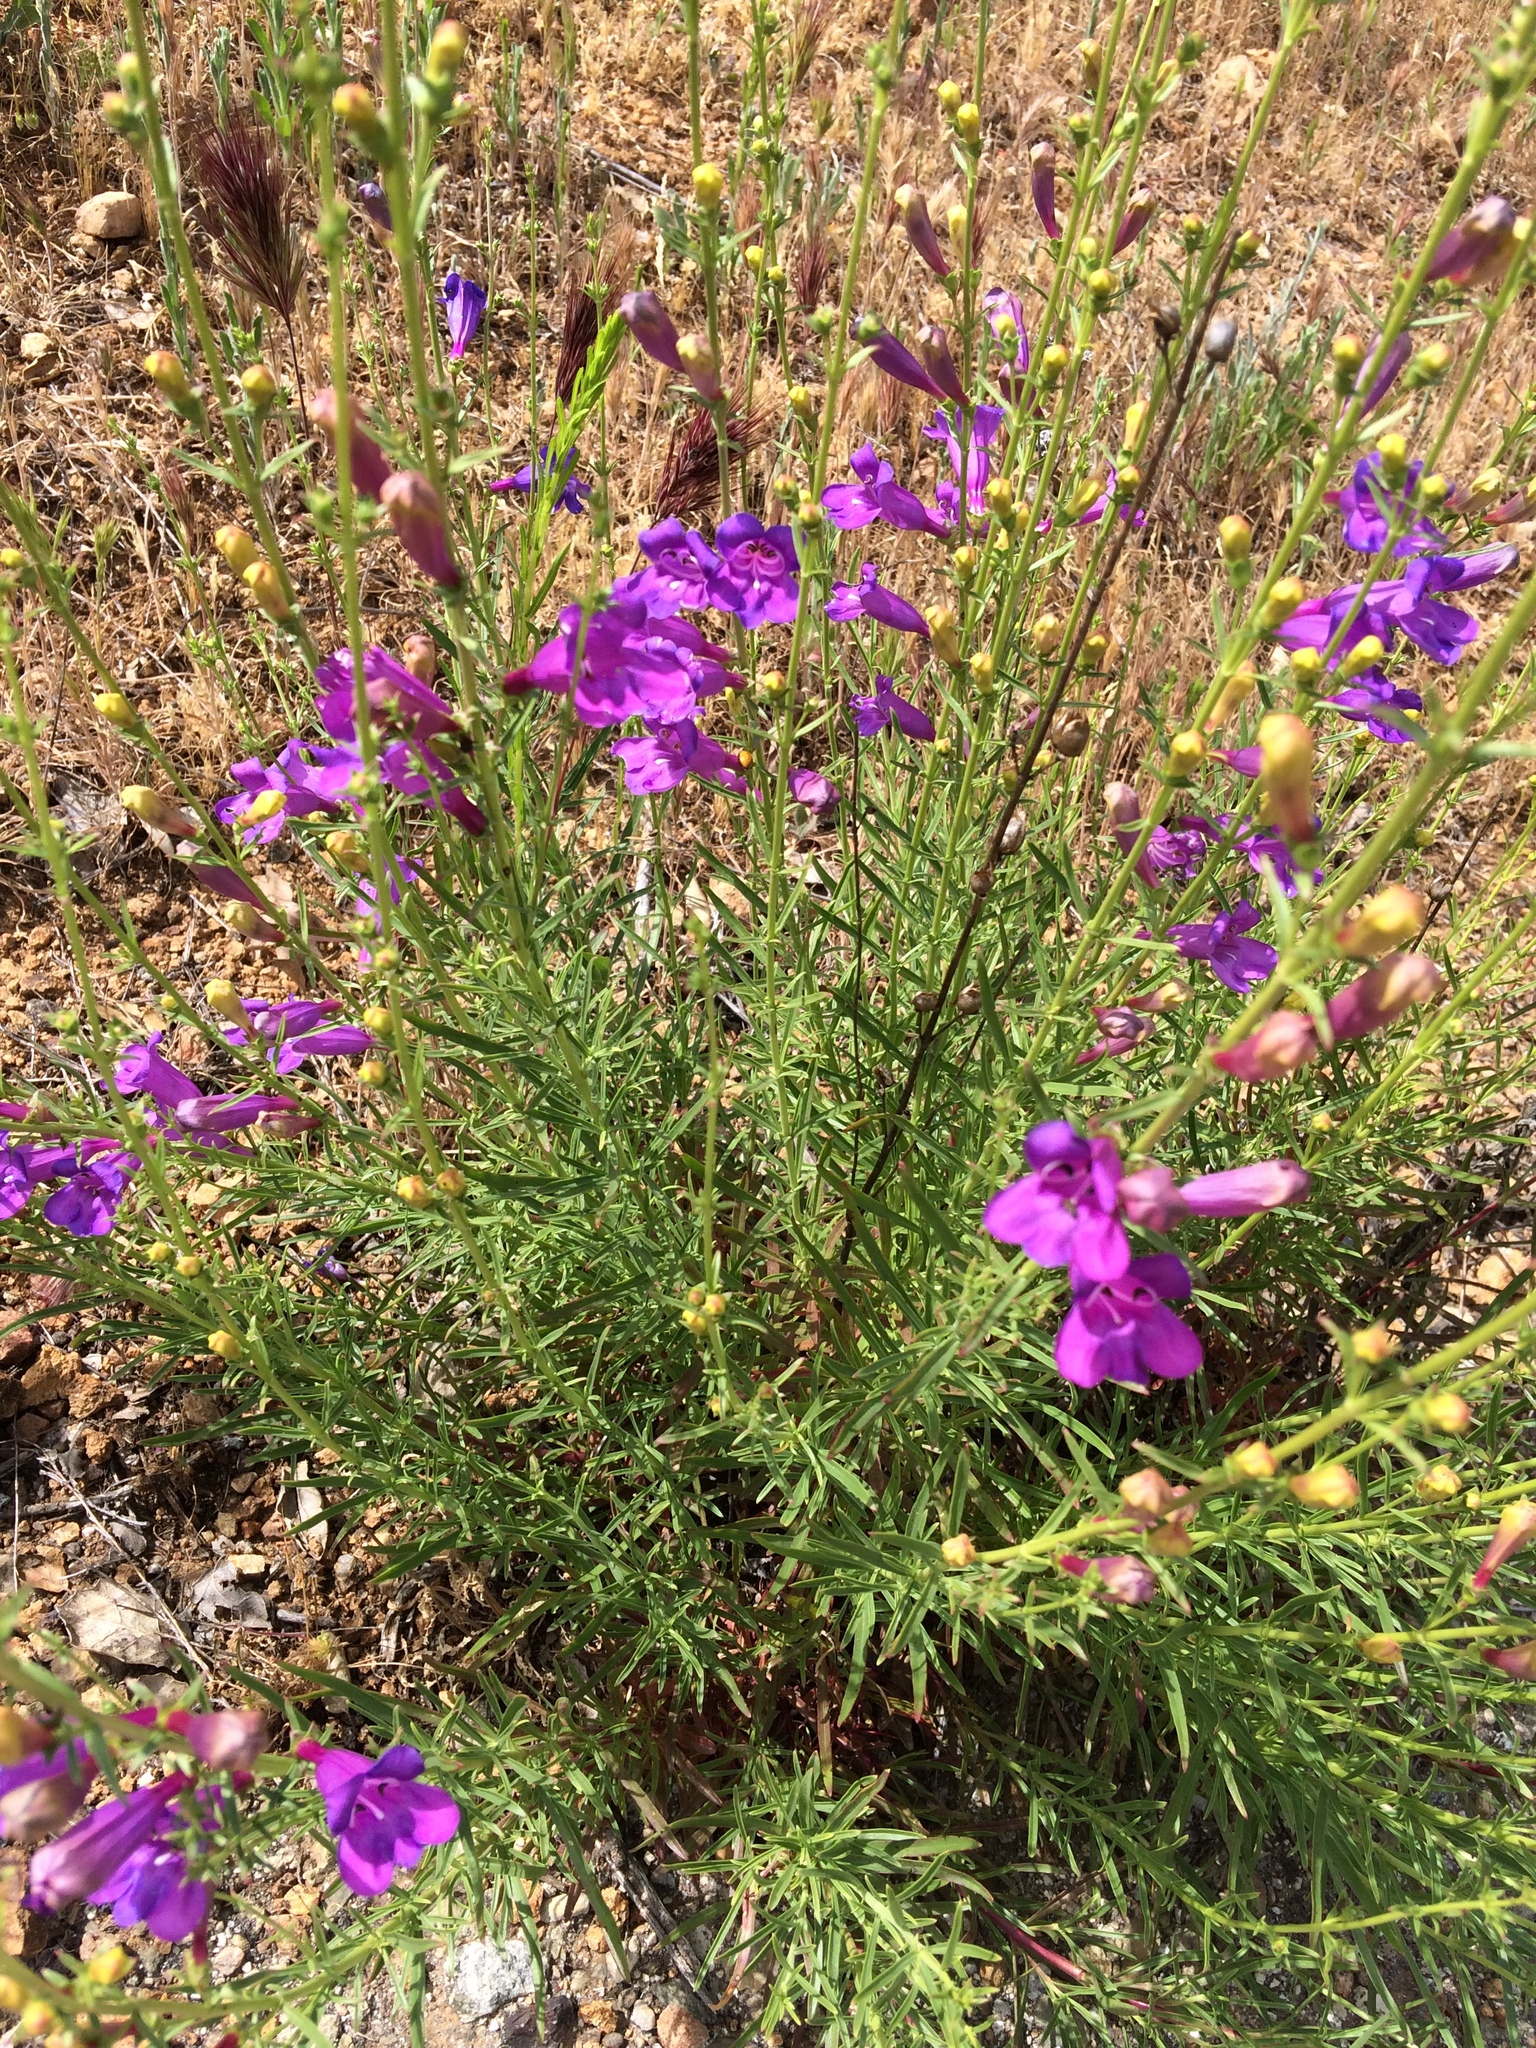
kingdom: Plantae
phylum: Tracheophyta
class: Magnoliopsida
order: Lamiales
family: Plantaginaceae
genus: Penstemon
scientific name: Penstemon heterophyllus
